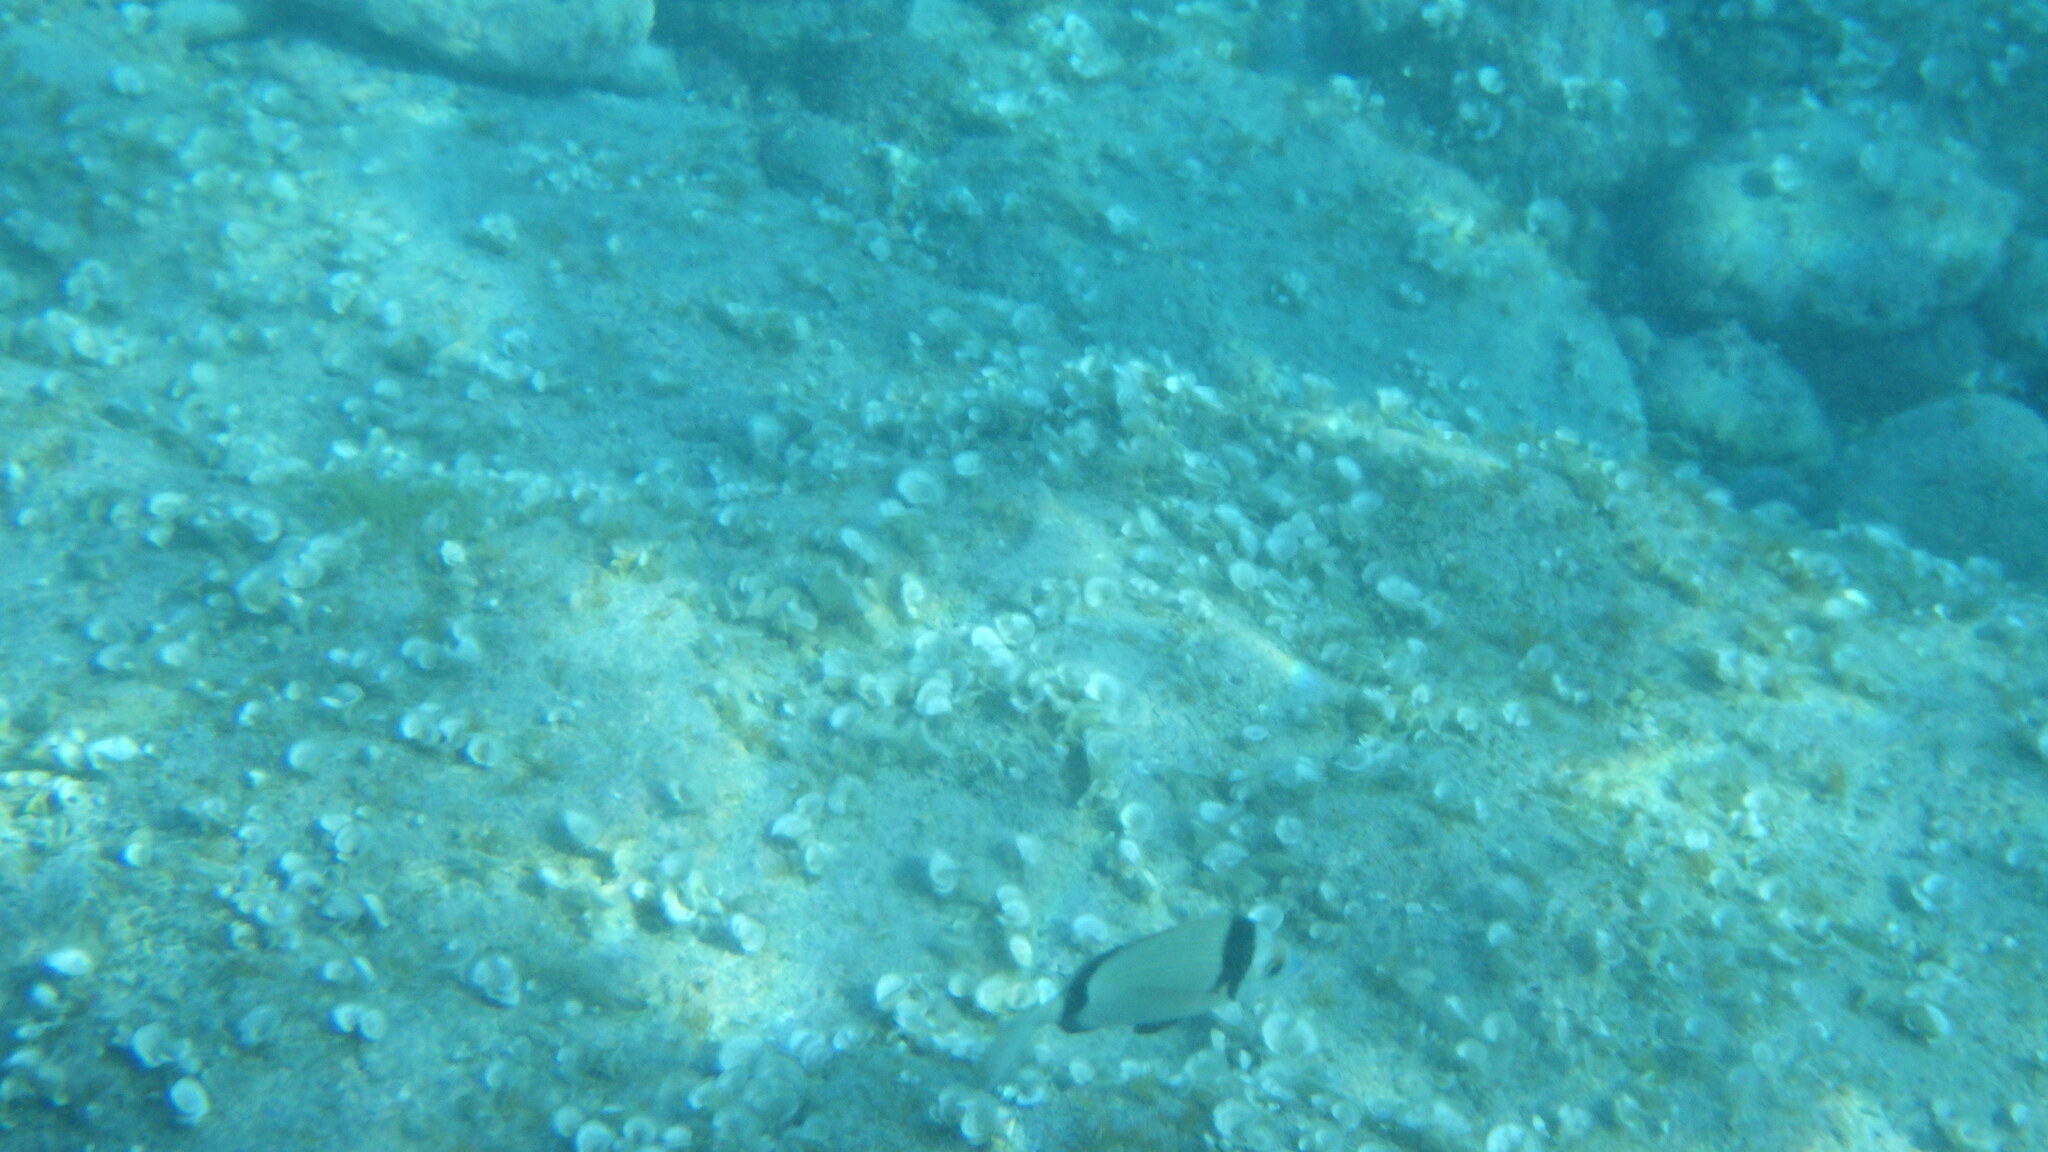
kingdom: Animalia
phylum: Chordata
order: Perciformes
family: Sparidae
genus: Diplodus
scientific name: Diplodus vulgaris
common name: Common two-banded seabream
